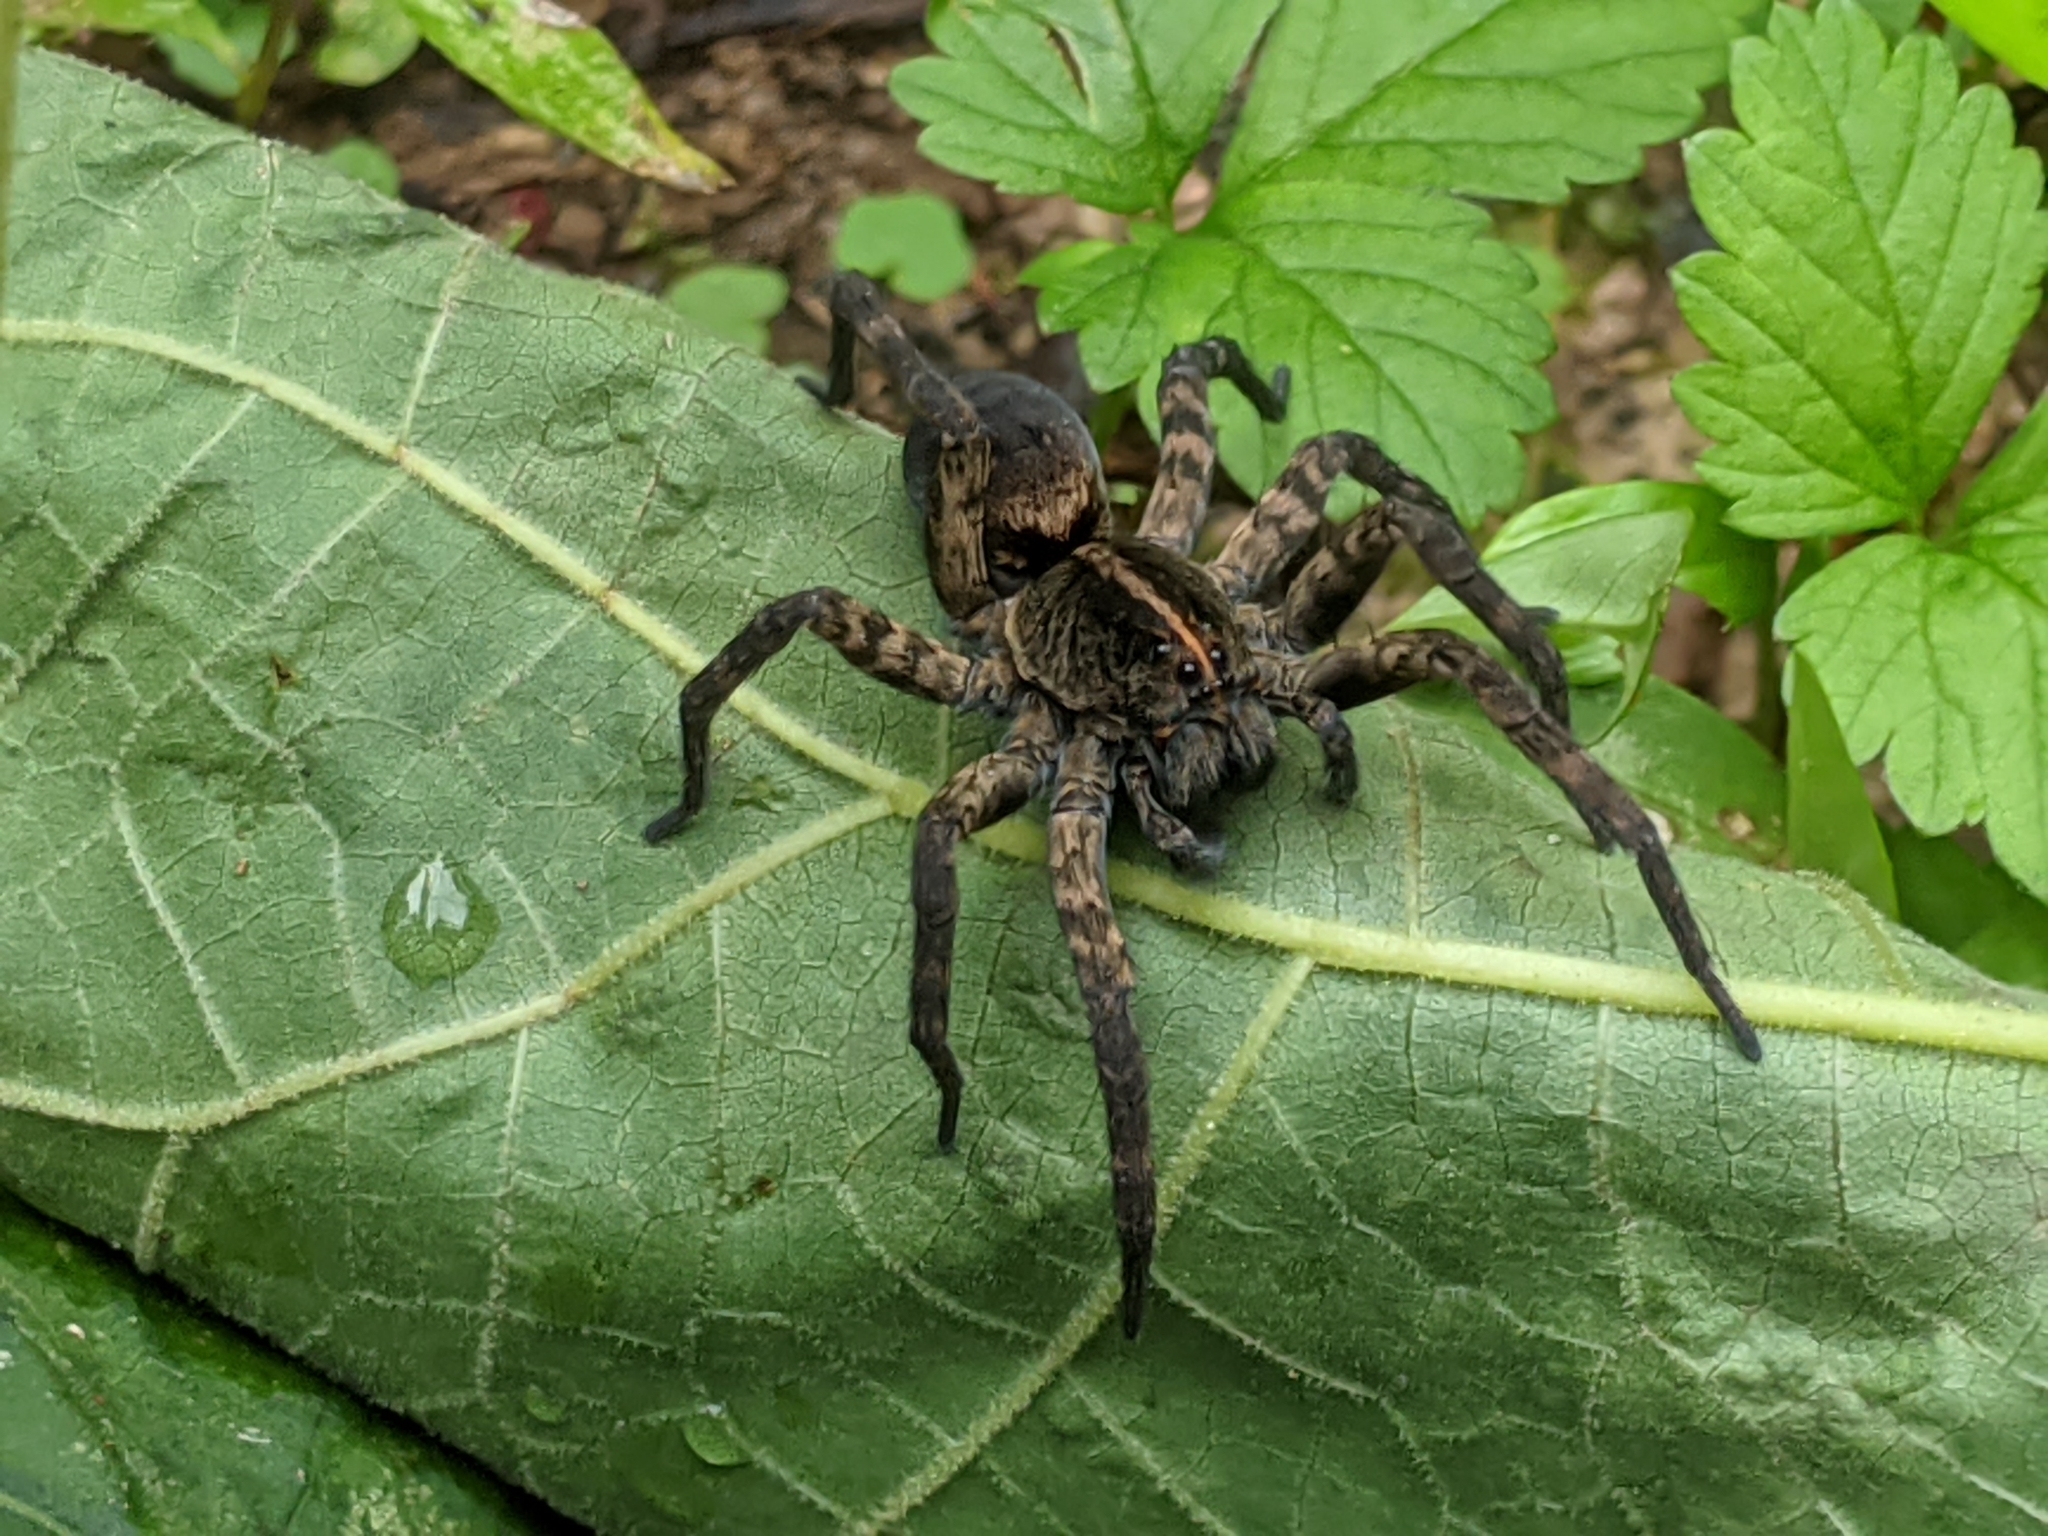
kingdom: Animalia
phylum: Arthropoda
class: Arachnida
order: Araneae
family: Lycosidae
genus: Tigrosa
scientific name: Tigrosa georgicola
